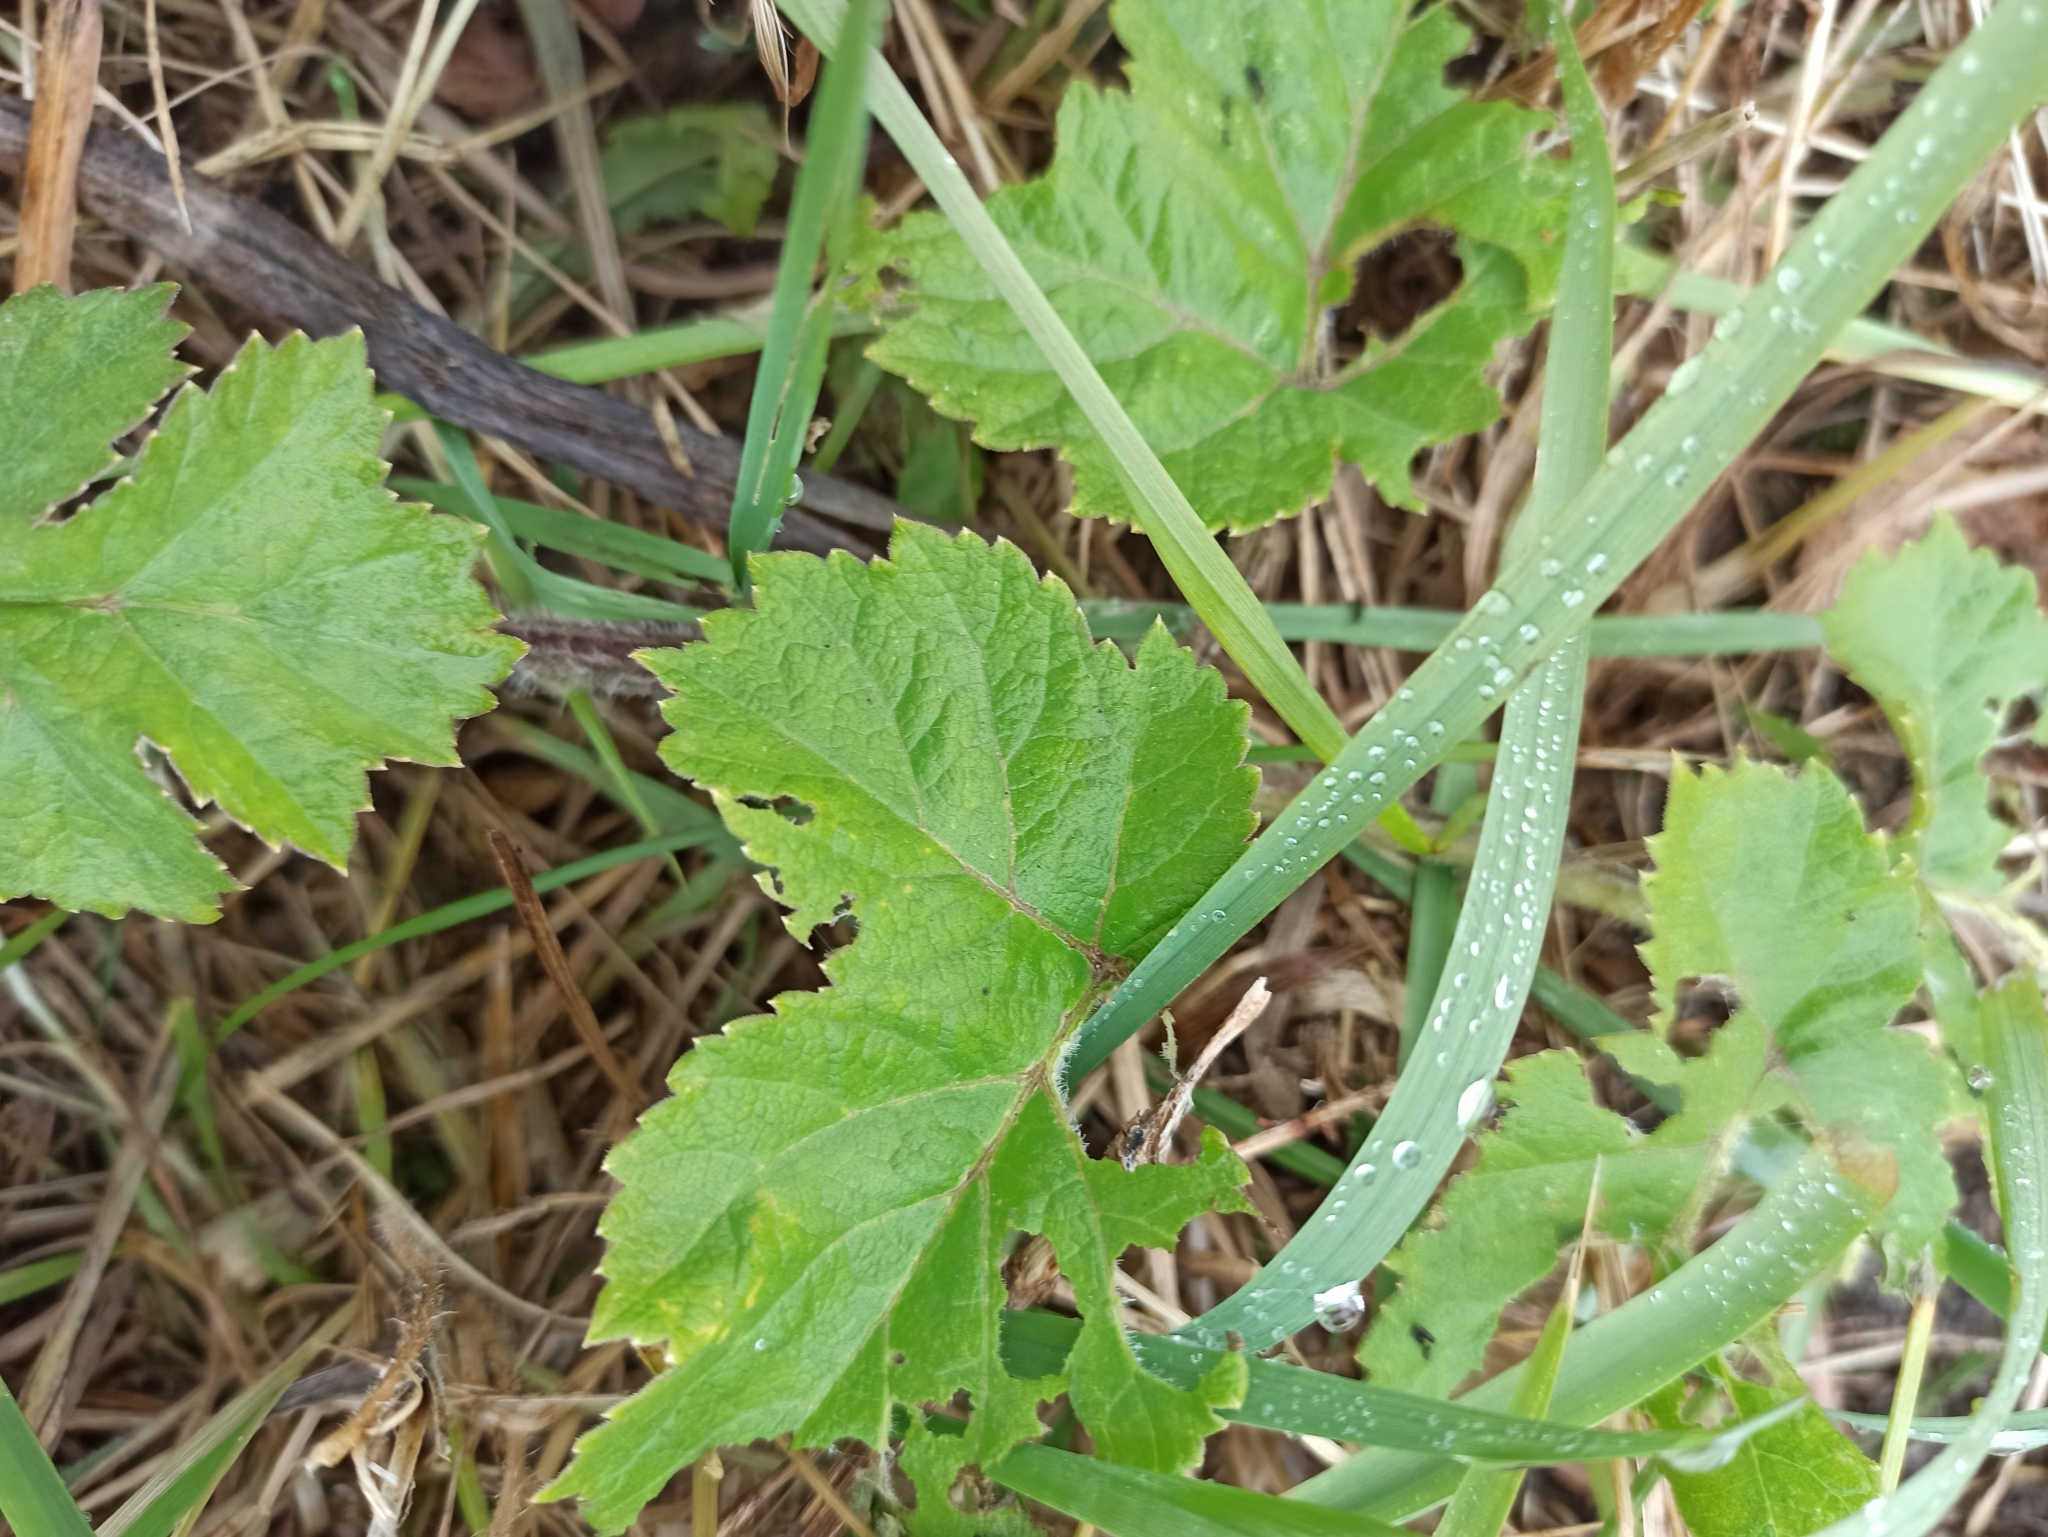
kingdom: Plantae
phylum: Tracheophyta
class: Magnoliopsida
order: Apiales
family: Apiaceae
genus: Heracleum
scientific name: Heracleum sphondylium
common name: Hogweed
